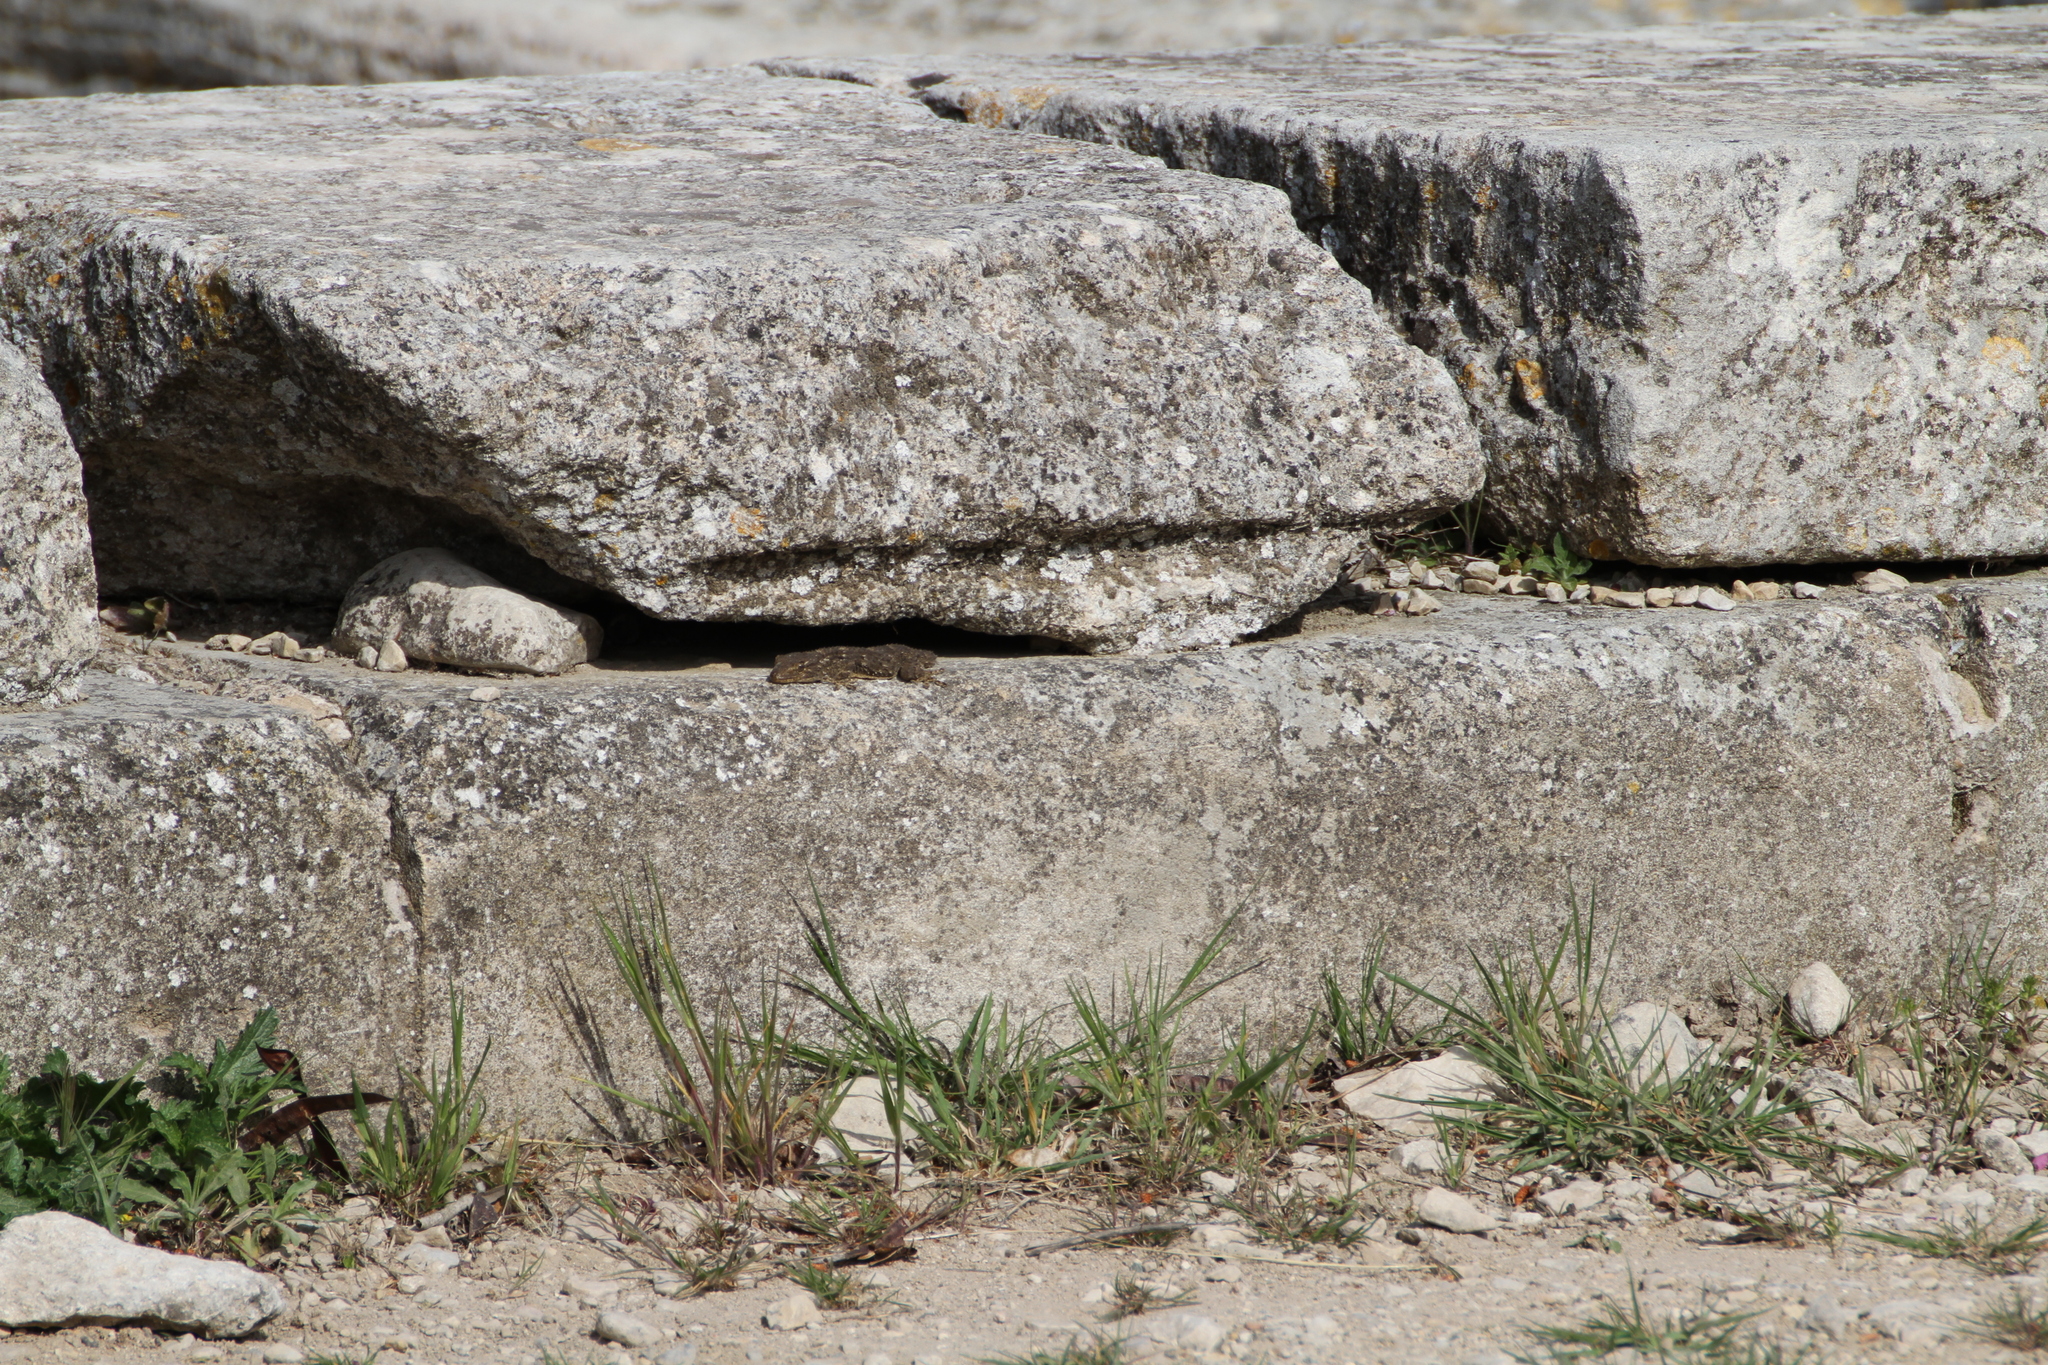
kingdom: Animalia
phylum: Chordata
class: Squamata
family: Phyllodactylidae
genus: Tarentola
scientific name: Tarentola mauritanica
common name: Moorish gecko
